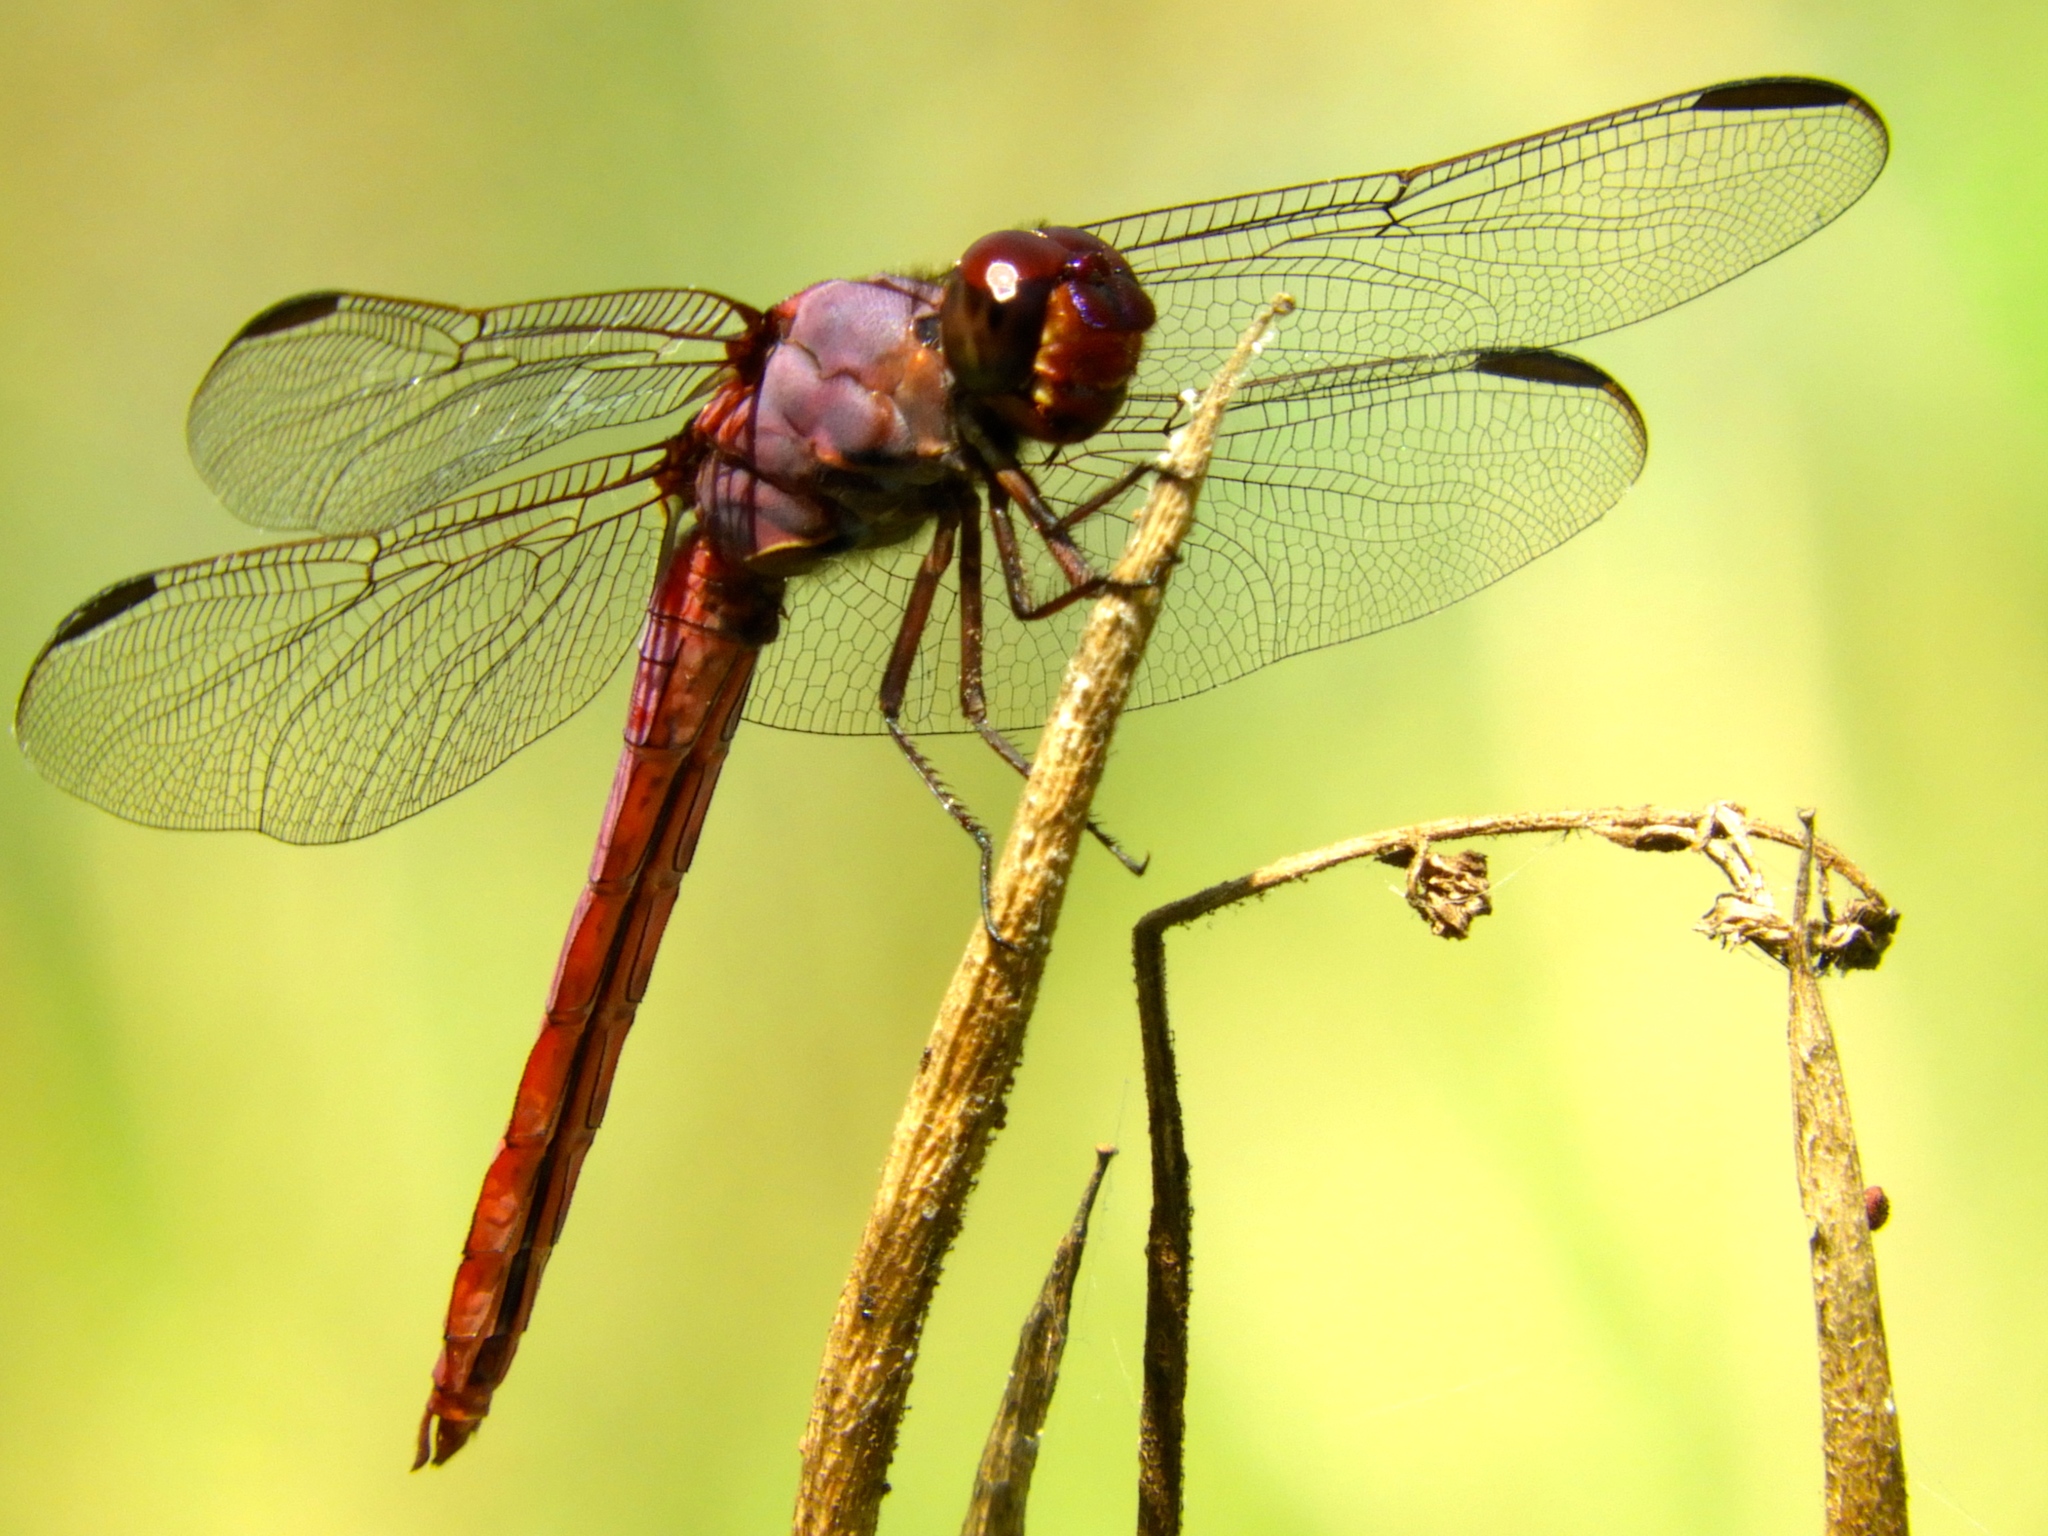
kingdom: Animalia
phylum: Arthropoda
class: Insecta
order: Odonata
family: Libellulidae
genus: Orthemis
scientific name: Orthemis ferruginea
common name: Roseate skimmer
